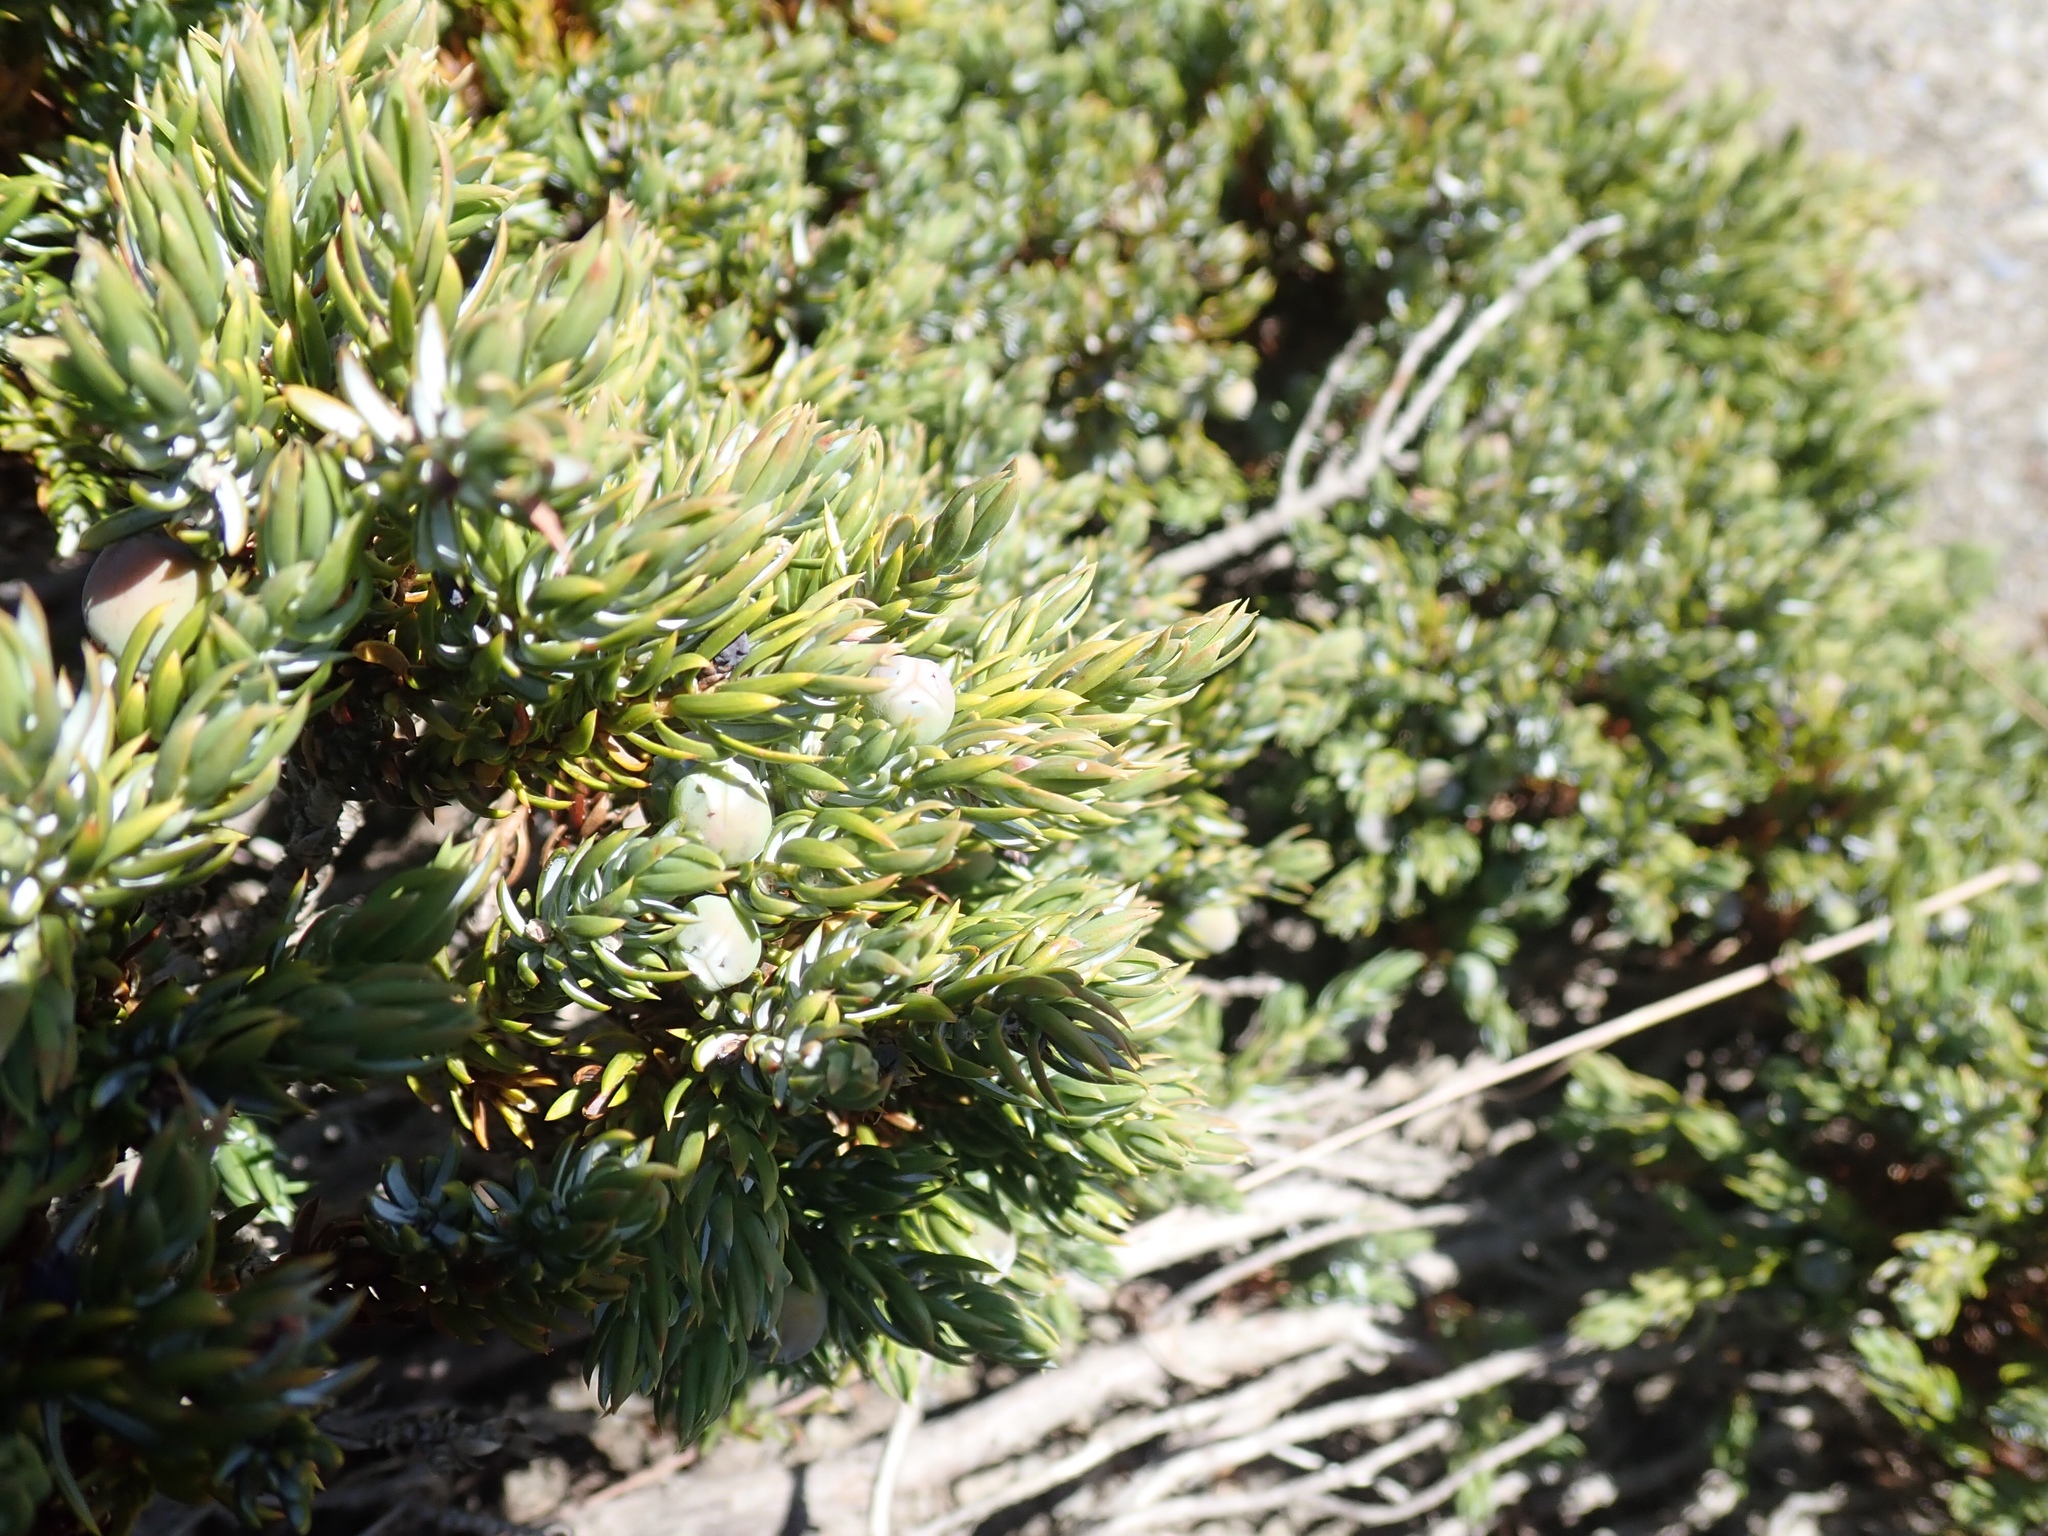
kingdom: Plantae
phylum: Tracheophyta
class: Pinopsida
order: Pinales
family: Cupressaceae
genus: Juniperus
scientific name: Juniperus communis
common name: Common juniper
